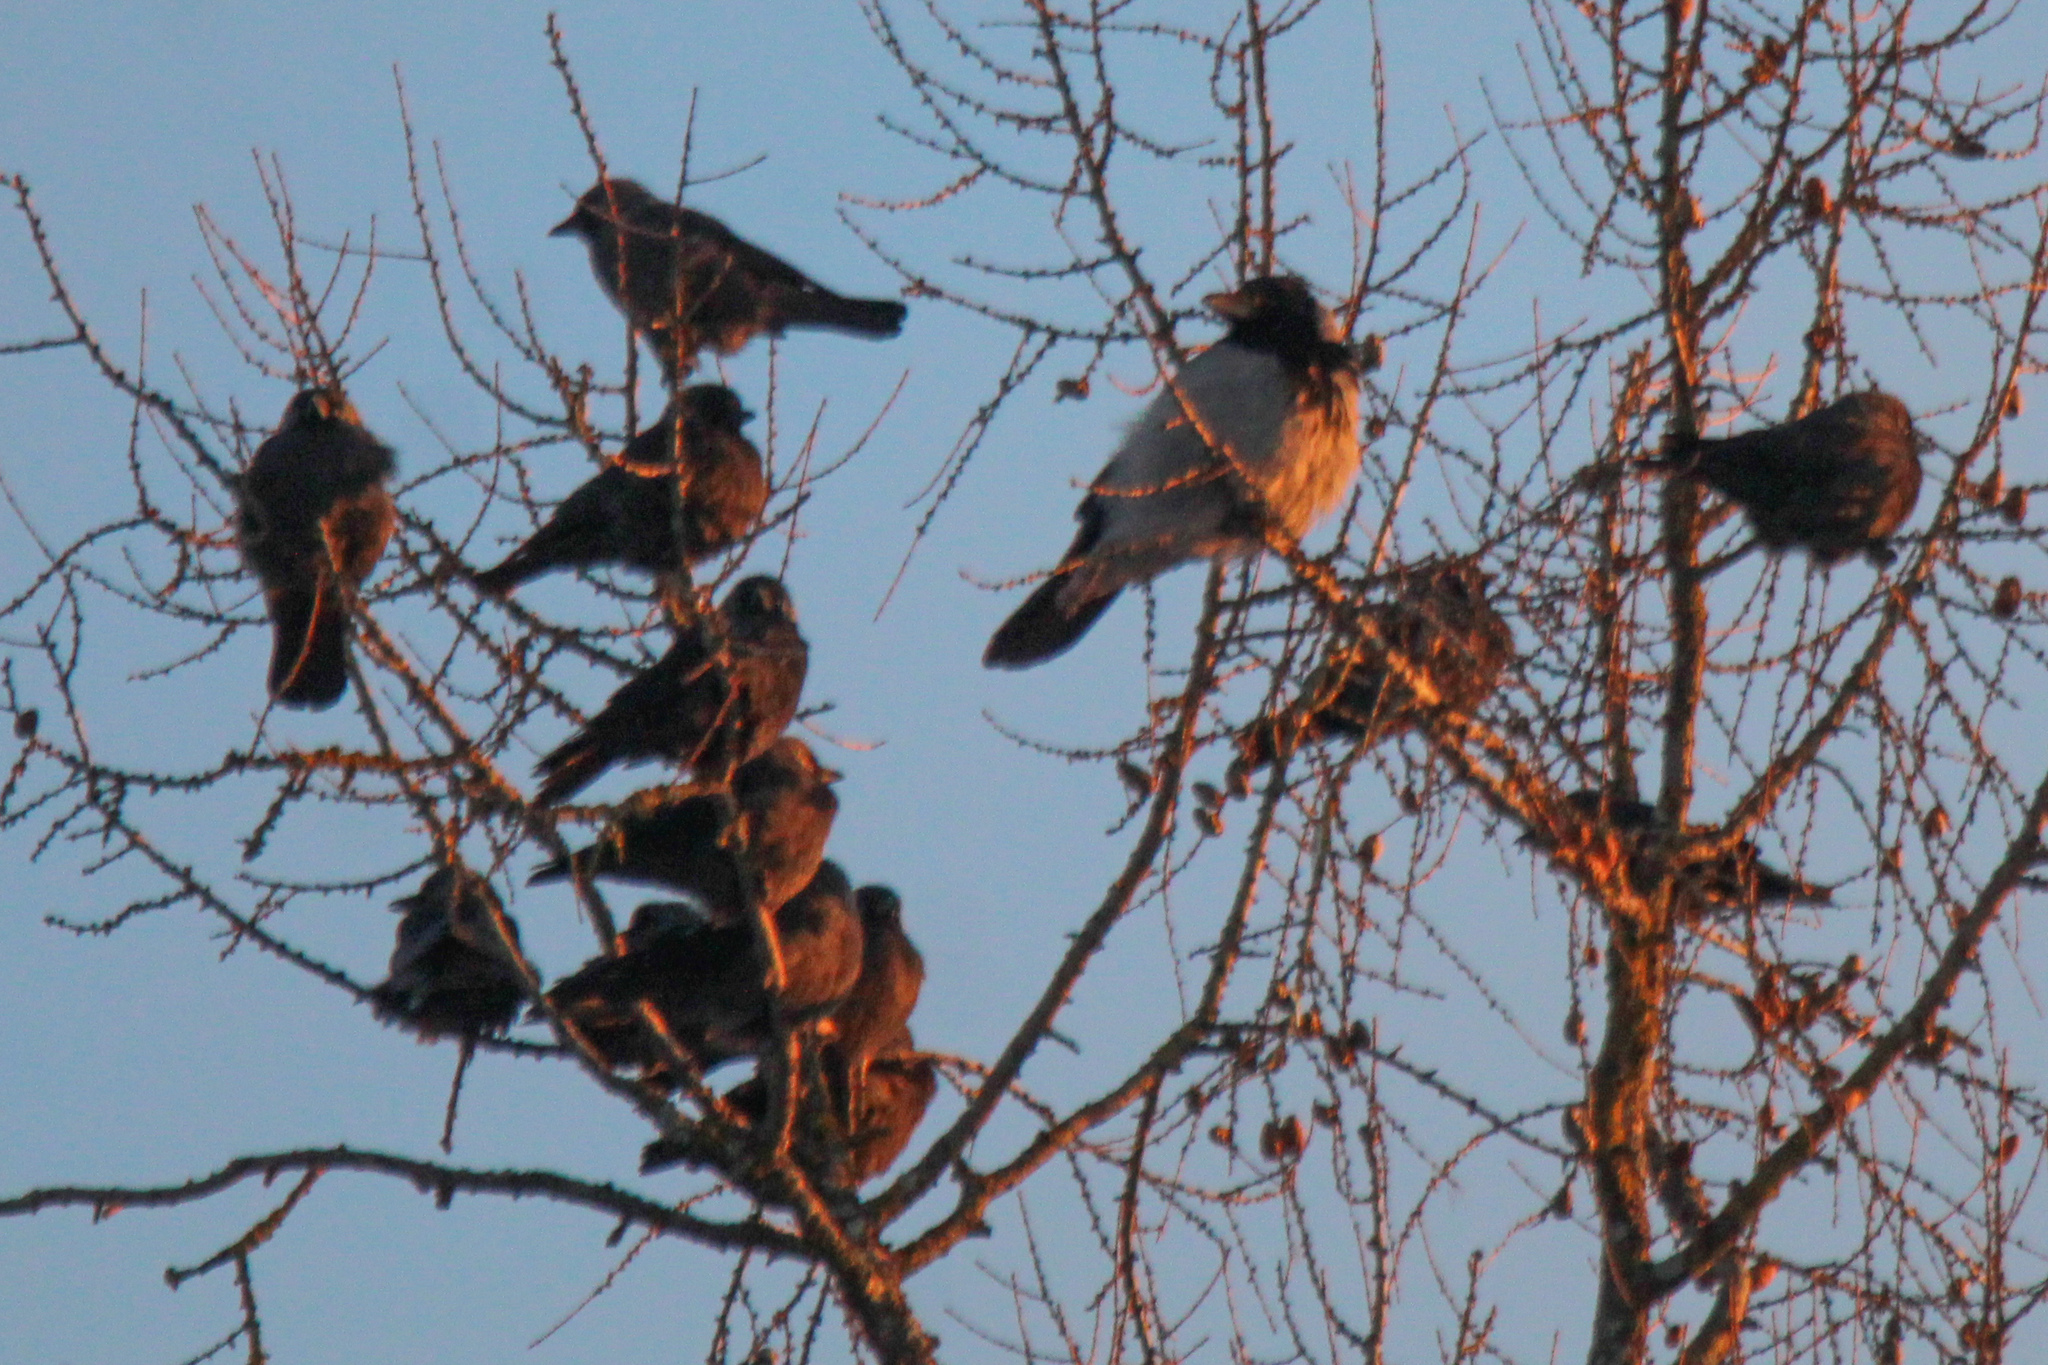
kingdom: Animalia
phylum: Chordata
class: Aves
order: Passeriformes
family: Corvidae
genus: Corvus
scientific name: Corvus cornix
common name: Hooded crow
